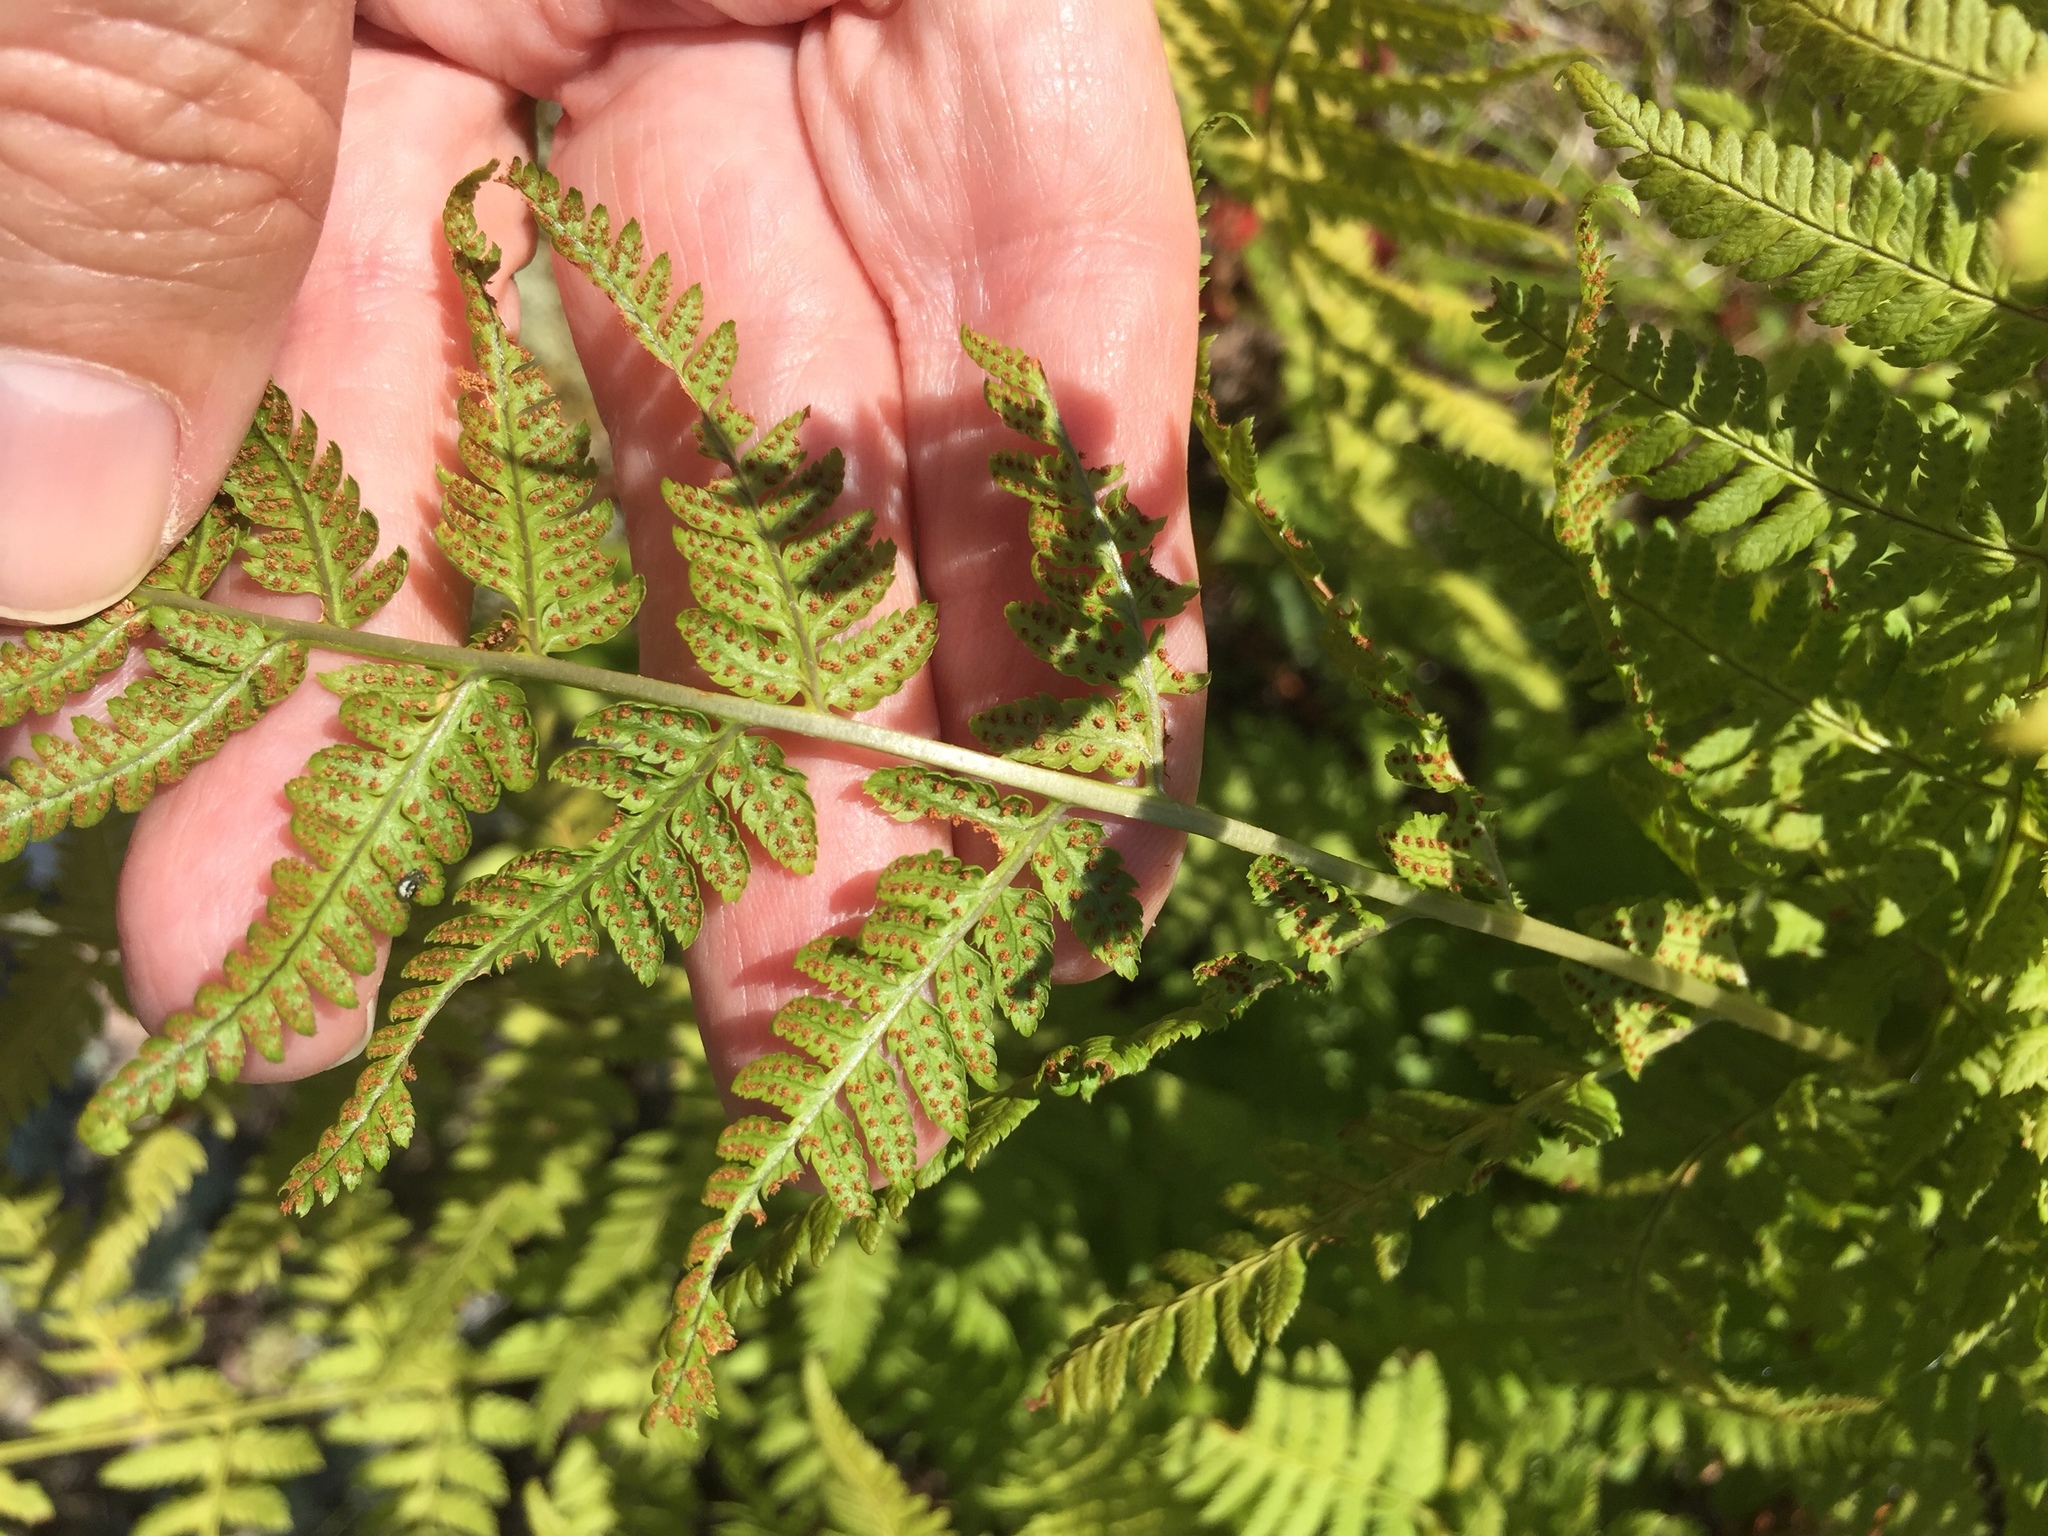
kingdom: Plantae
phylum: Tracheophyta
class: Polypodiopsida
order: Polypodiales
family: Dryopteridaceae
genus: Dryopteris
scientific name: Dryopteris carthusiana
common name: Narrow buckler-fern
